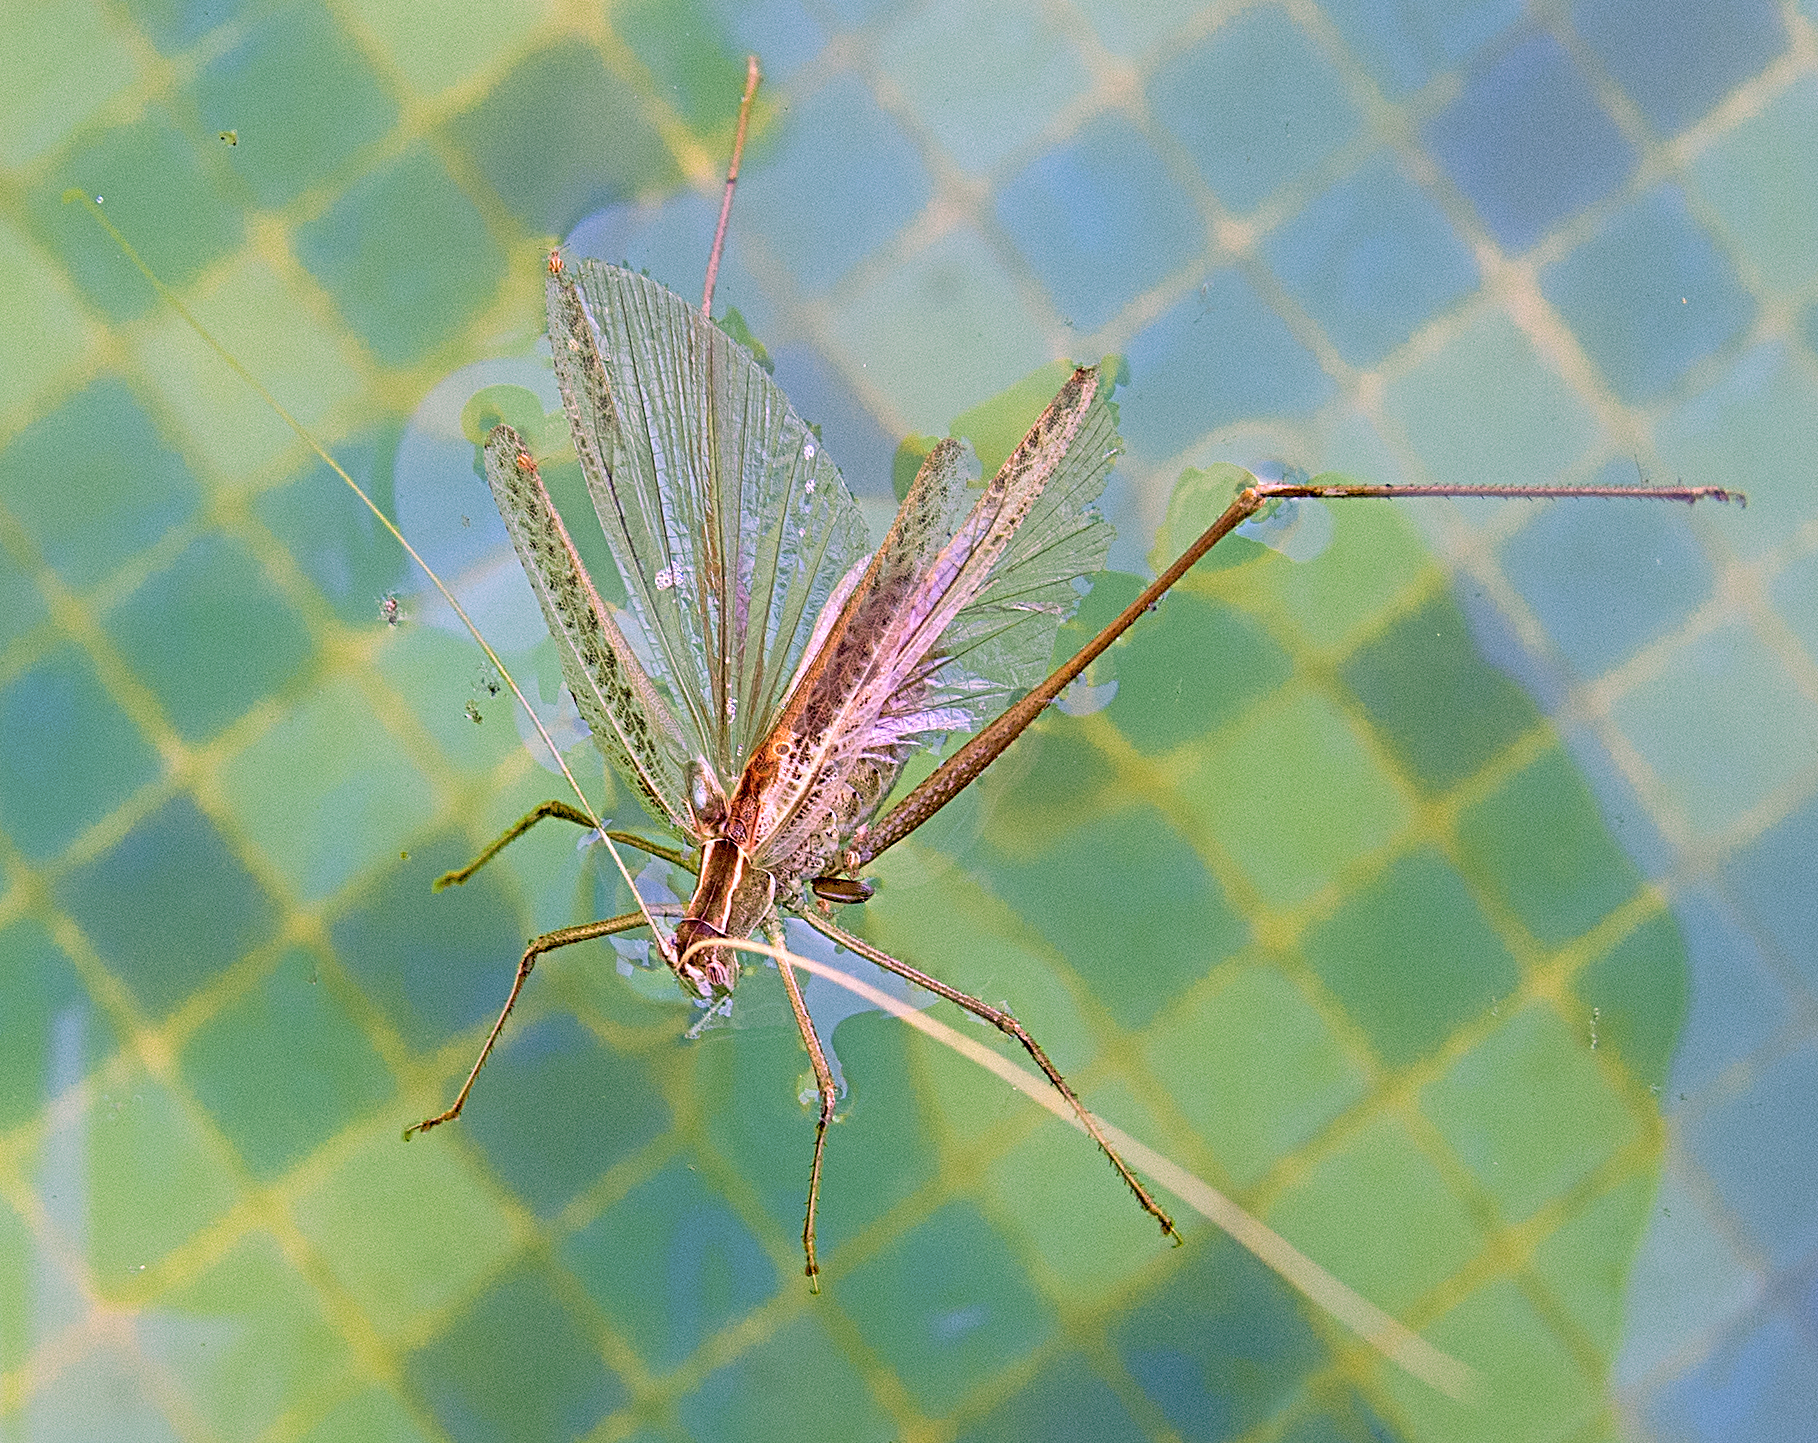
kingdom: Animalia
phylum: Arthropoda
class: Insecta
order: Orthoptera
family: Tettigoniidae
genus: Tylopsis
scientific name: Tylopsis lilifolia
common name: Lily bush-cricket
